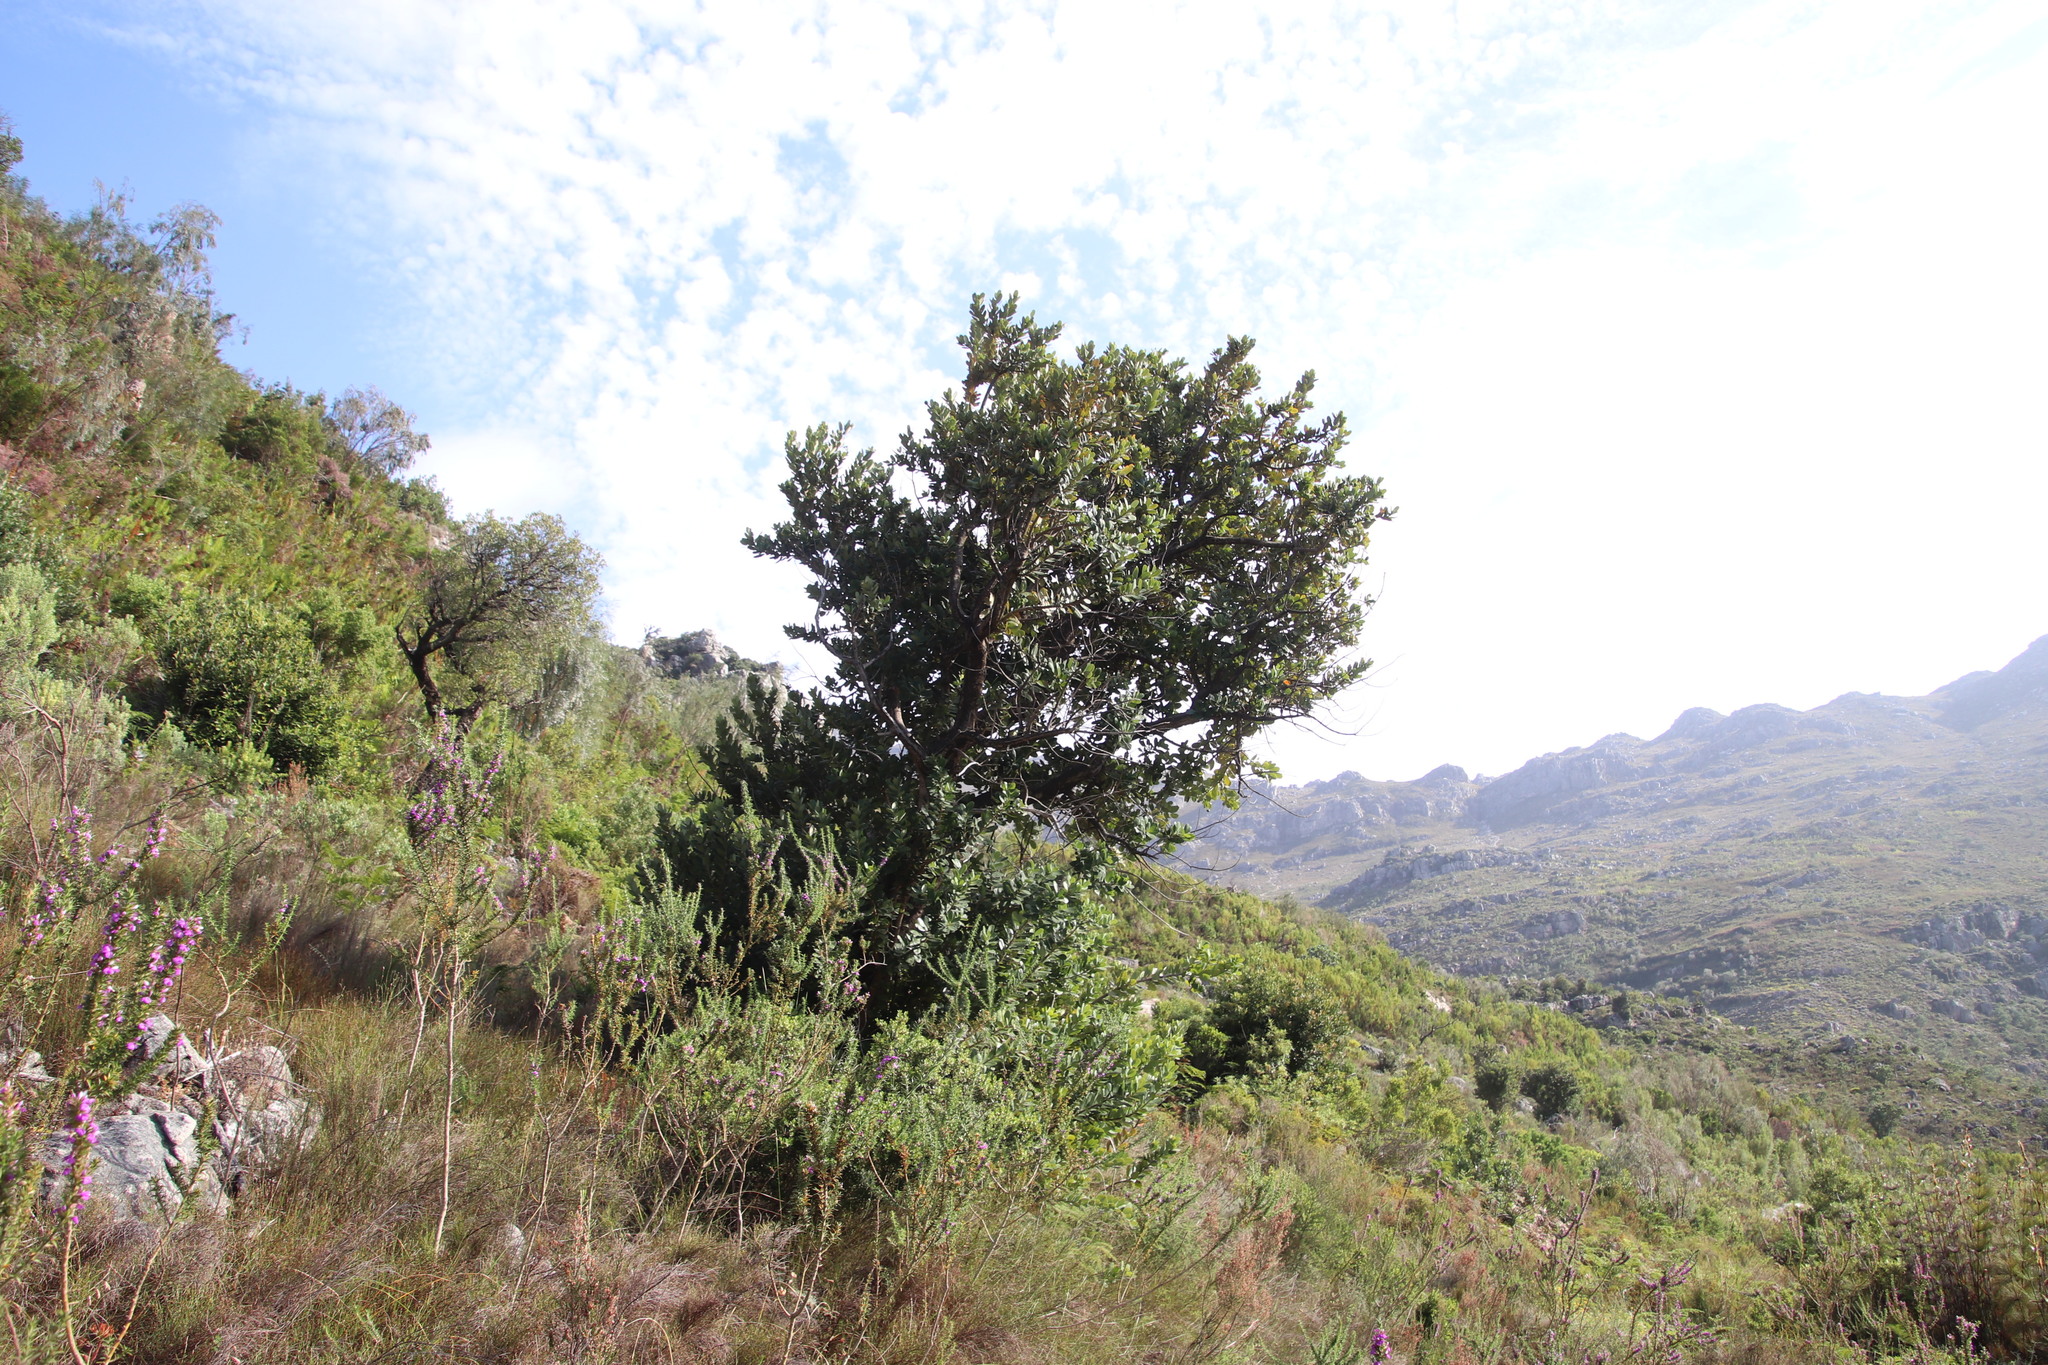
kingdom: Plantae
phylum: Tracheophyta
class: Magnoliopsida
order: Sapindales
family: Anacardiaceae
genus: Heeria
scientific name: Heeria argentea
